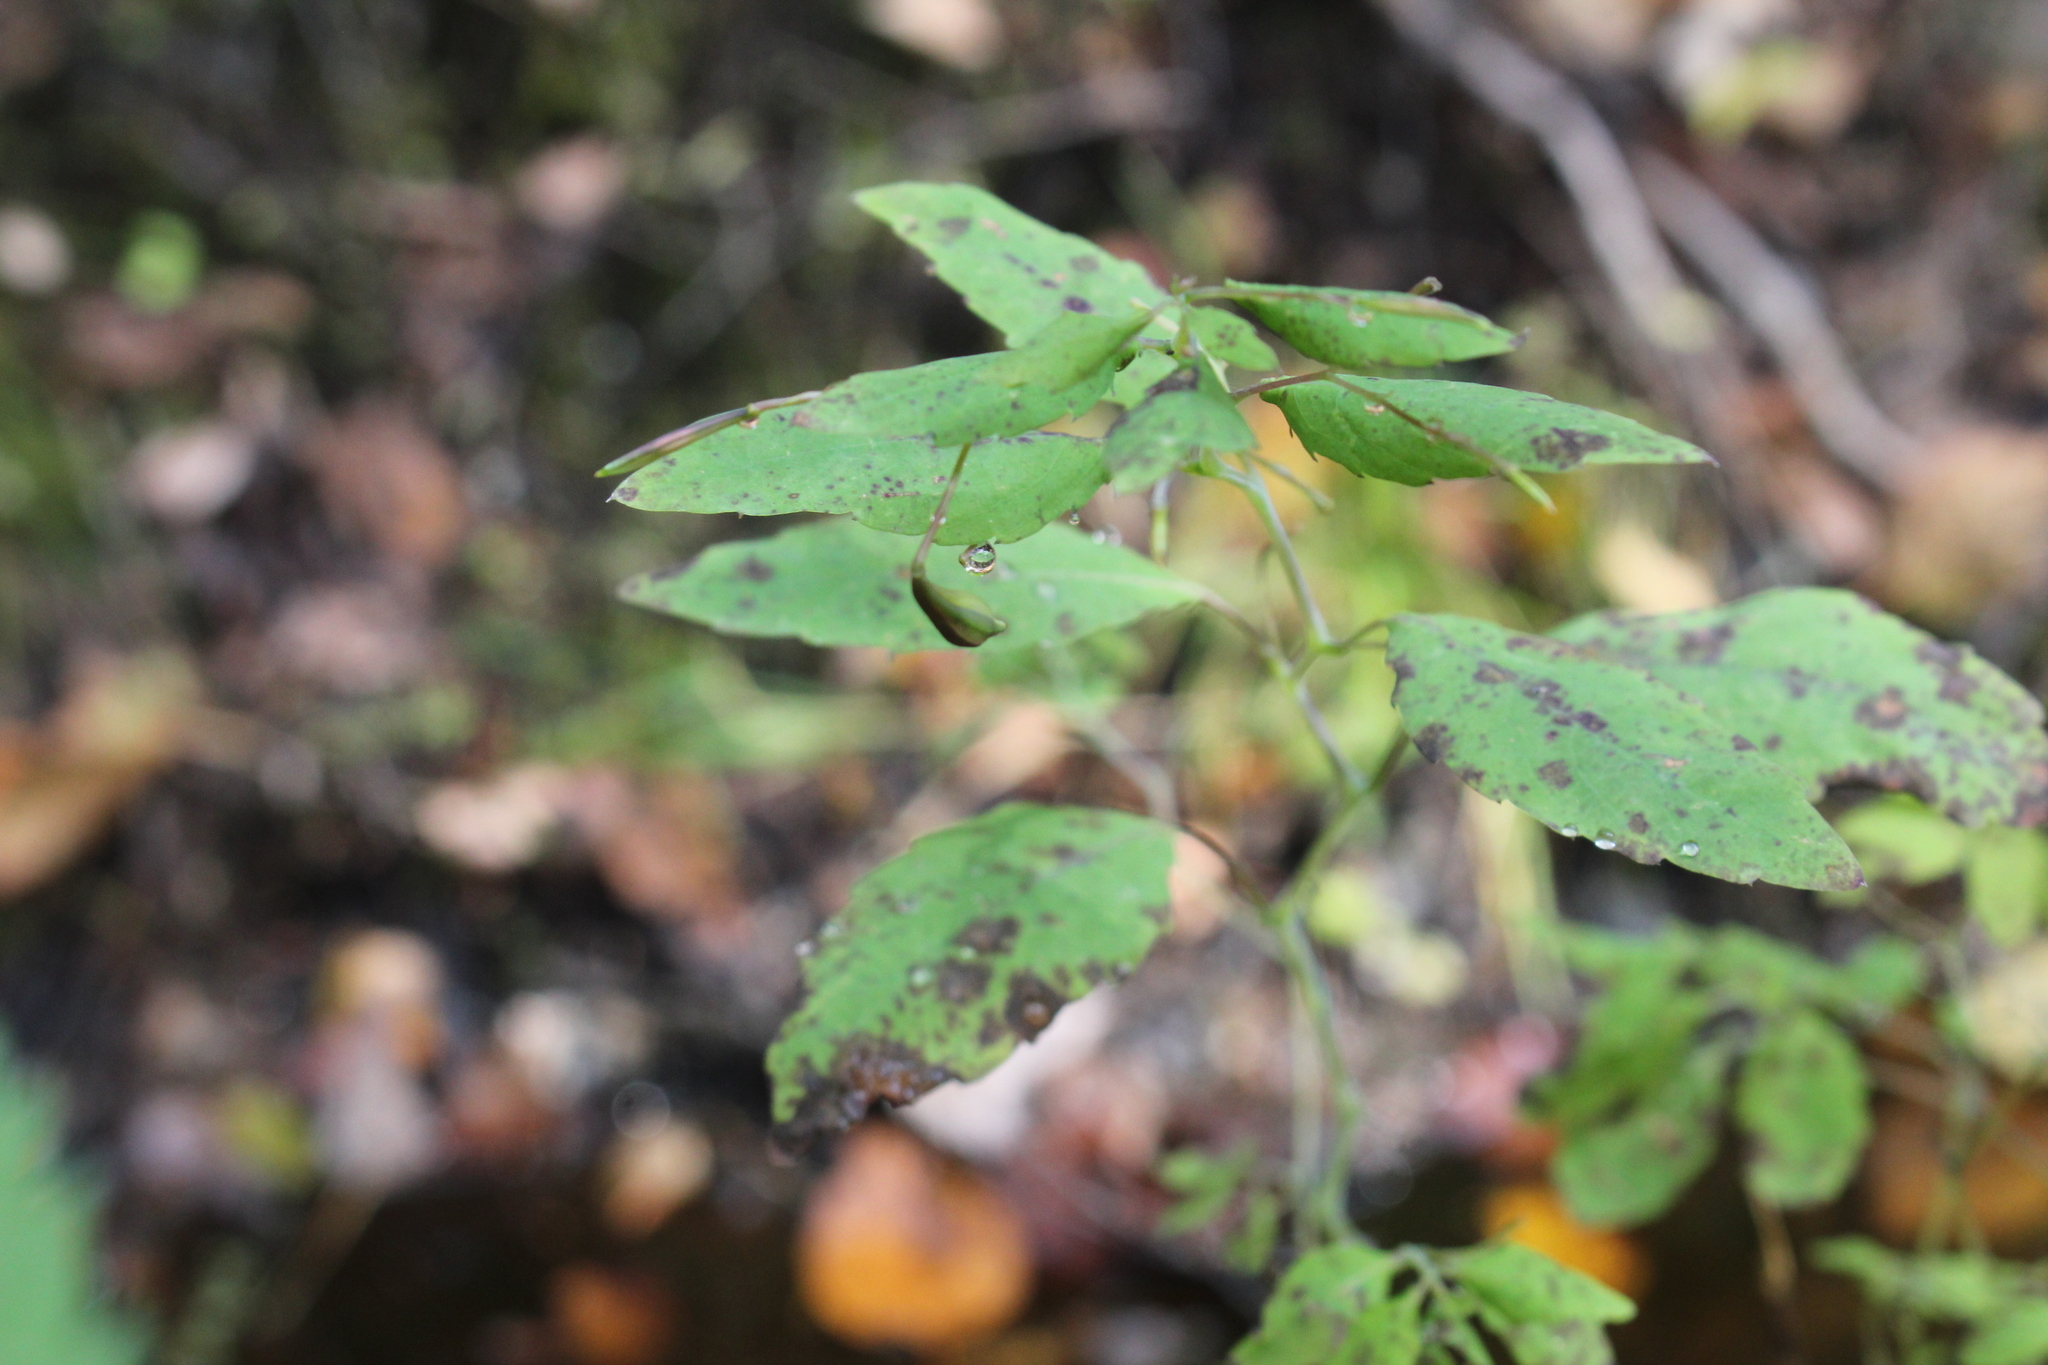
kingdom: Plantae
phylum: Tracheophyta
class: Magnoliopsida
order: Ericales
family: Balsaminaceae
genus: Impatiens
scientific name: Impatiens capensis
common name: Orange balsam
